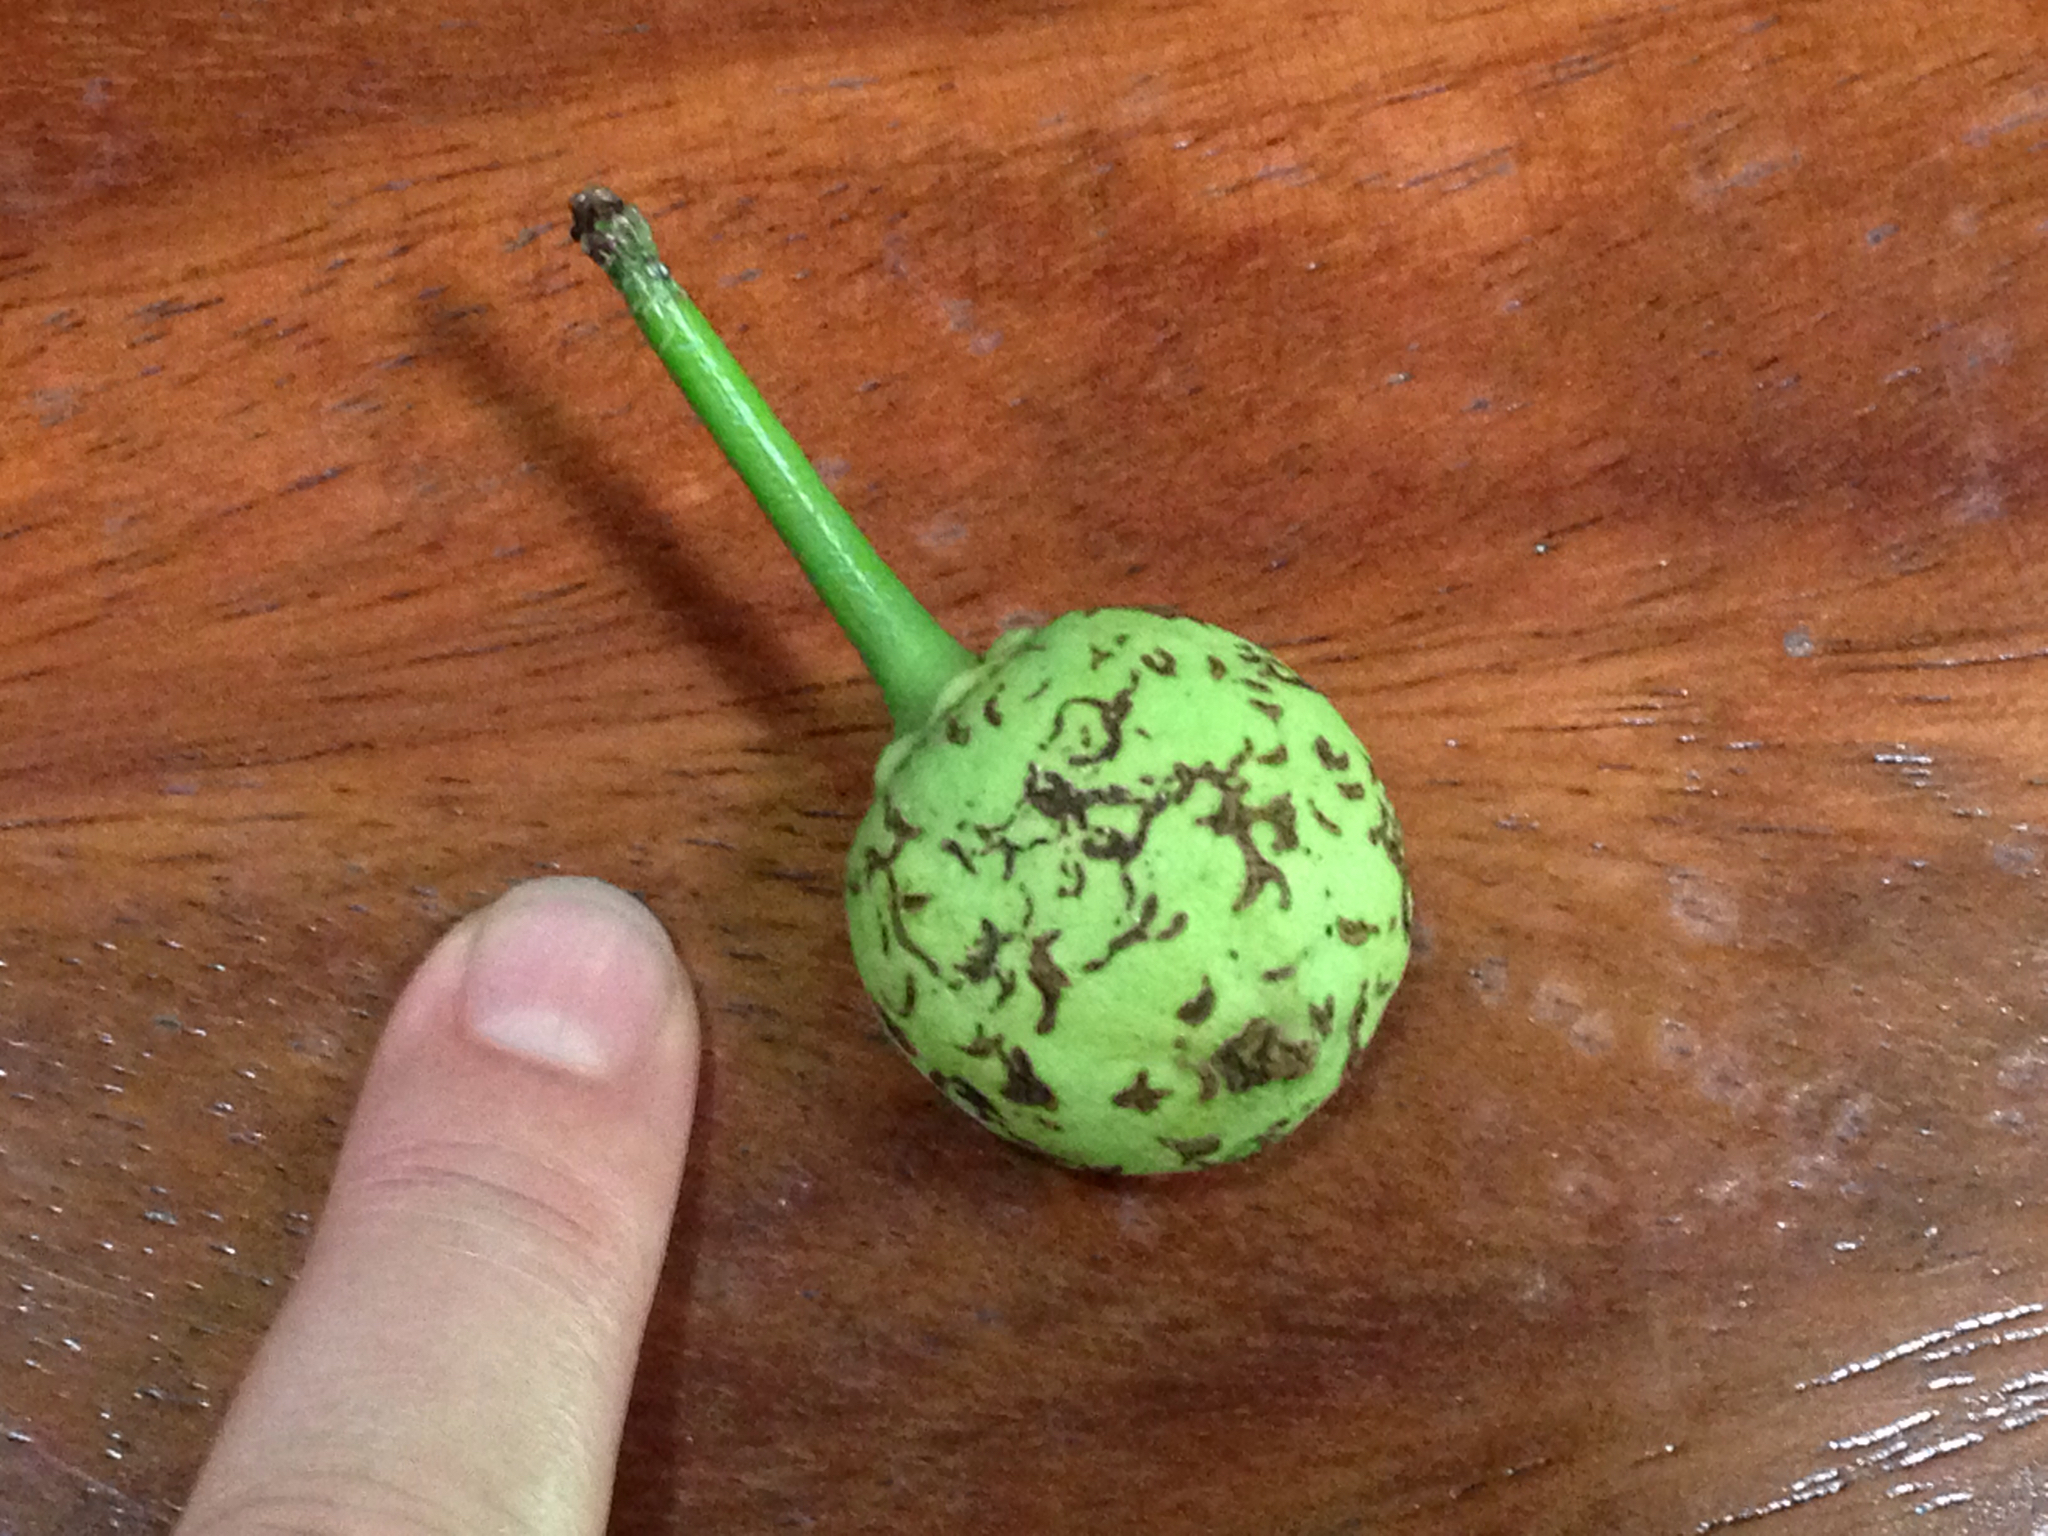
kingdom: Plantae
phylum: Tracheophyta
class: Magnoliopsida
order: Malpighiales
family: Calophyllaceae
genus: Calophyllum
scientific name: Calophyllum inophyllum
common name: Alexandrian laurel
